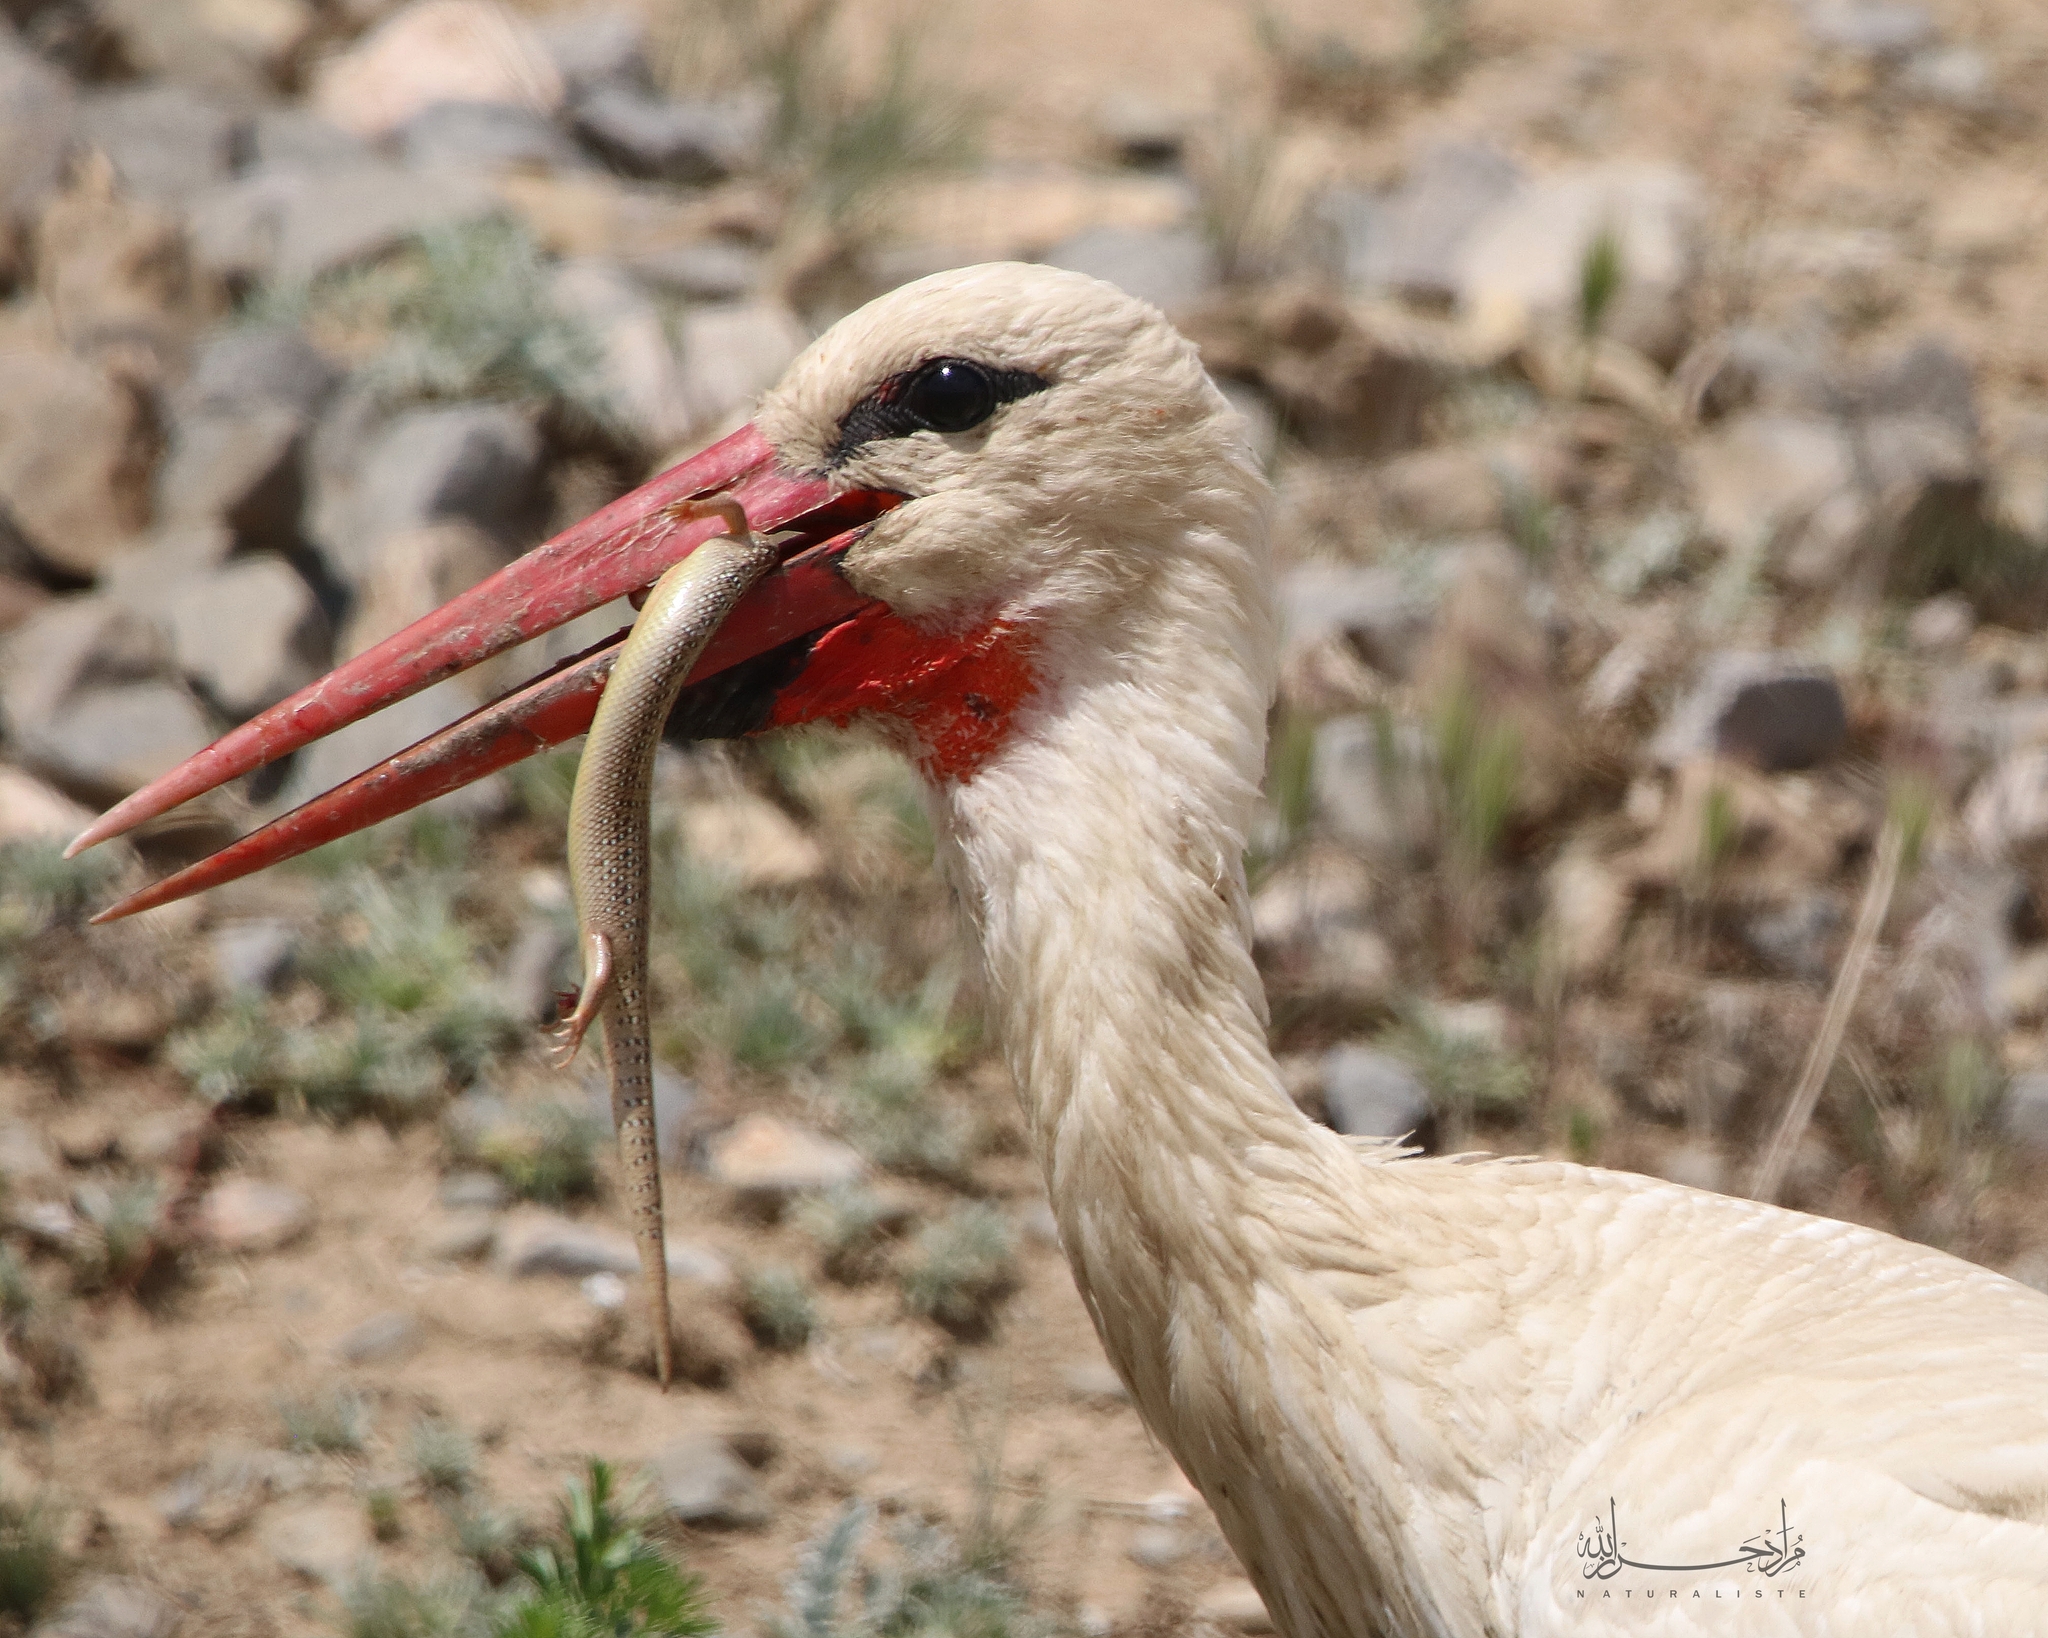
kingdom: Animalia
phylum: Chordata
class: Aves
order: Ciconiiformes
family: Ciconiidae
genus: Ciconia
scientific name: Ciconia ciconia
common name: White stork
